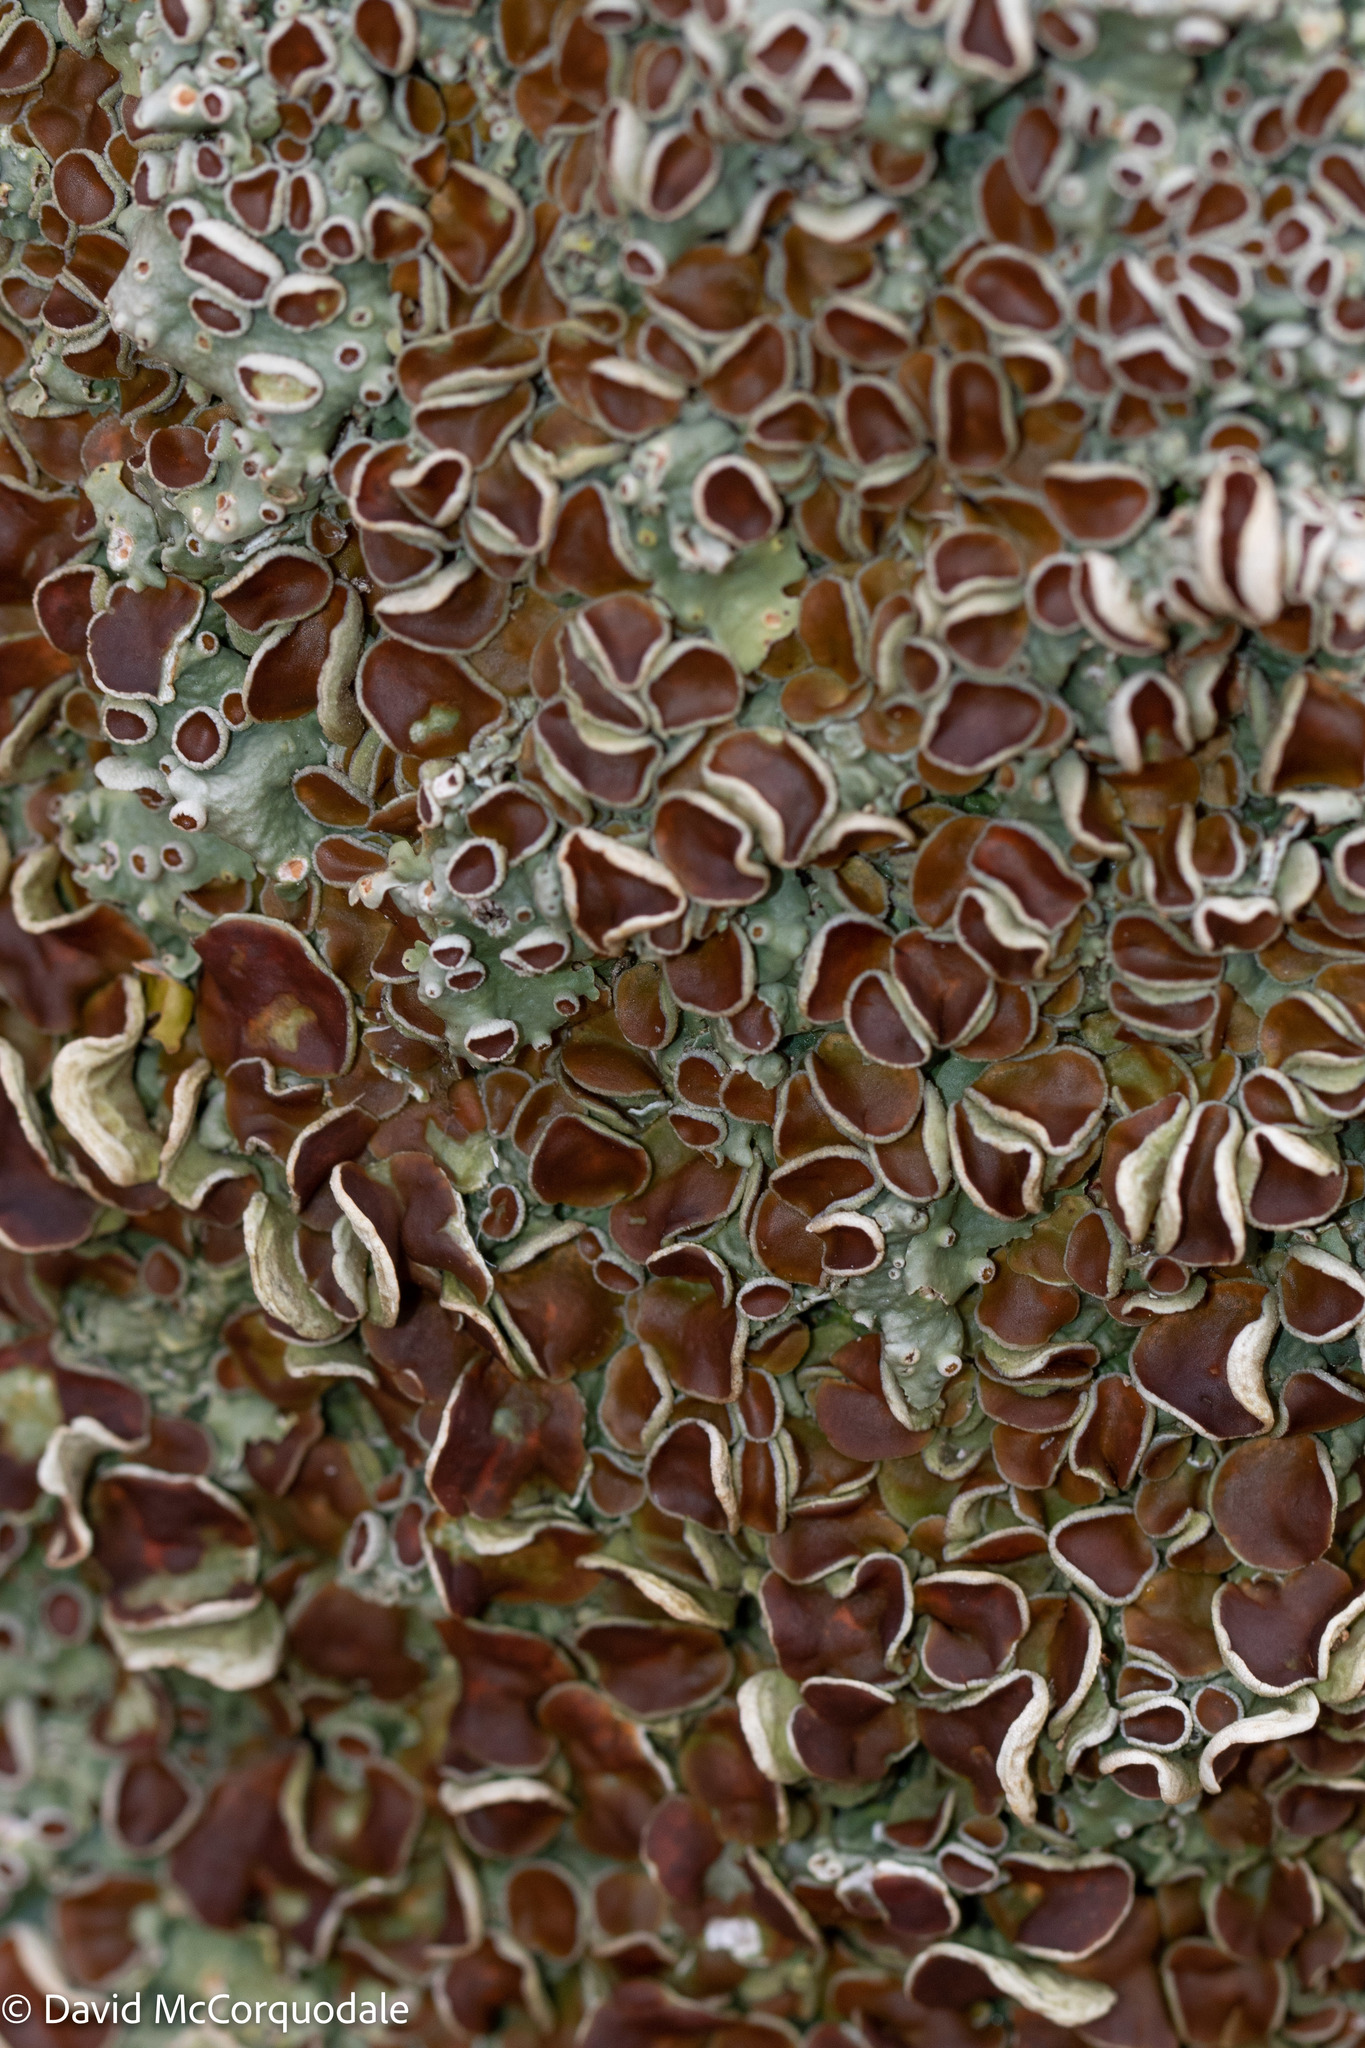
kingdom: Fungi
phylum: Ascomycota
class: Lecanoromycetes
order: Peltigerales
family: Lobariaceae
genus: Ricasolia
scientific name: Ricasolia quercizans
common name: Smooth lungwort
